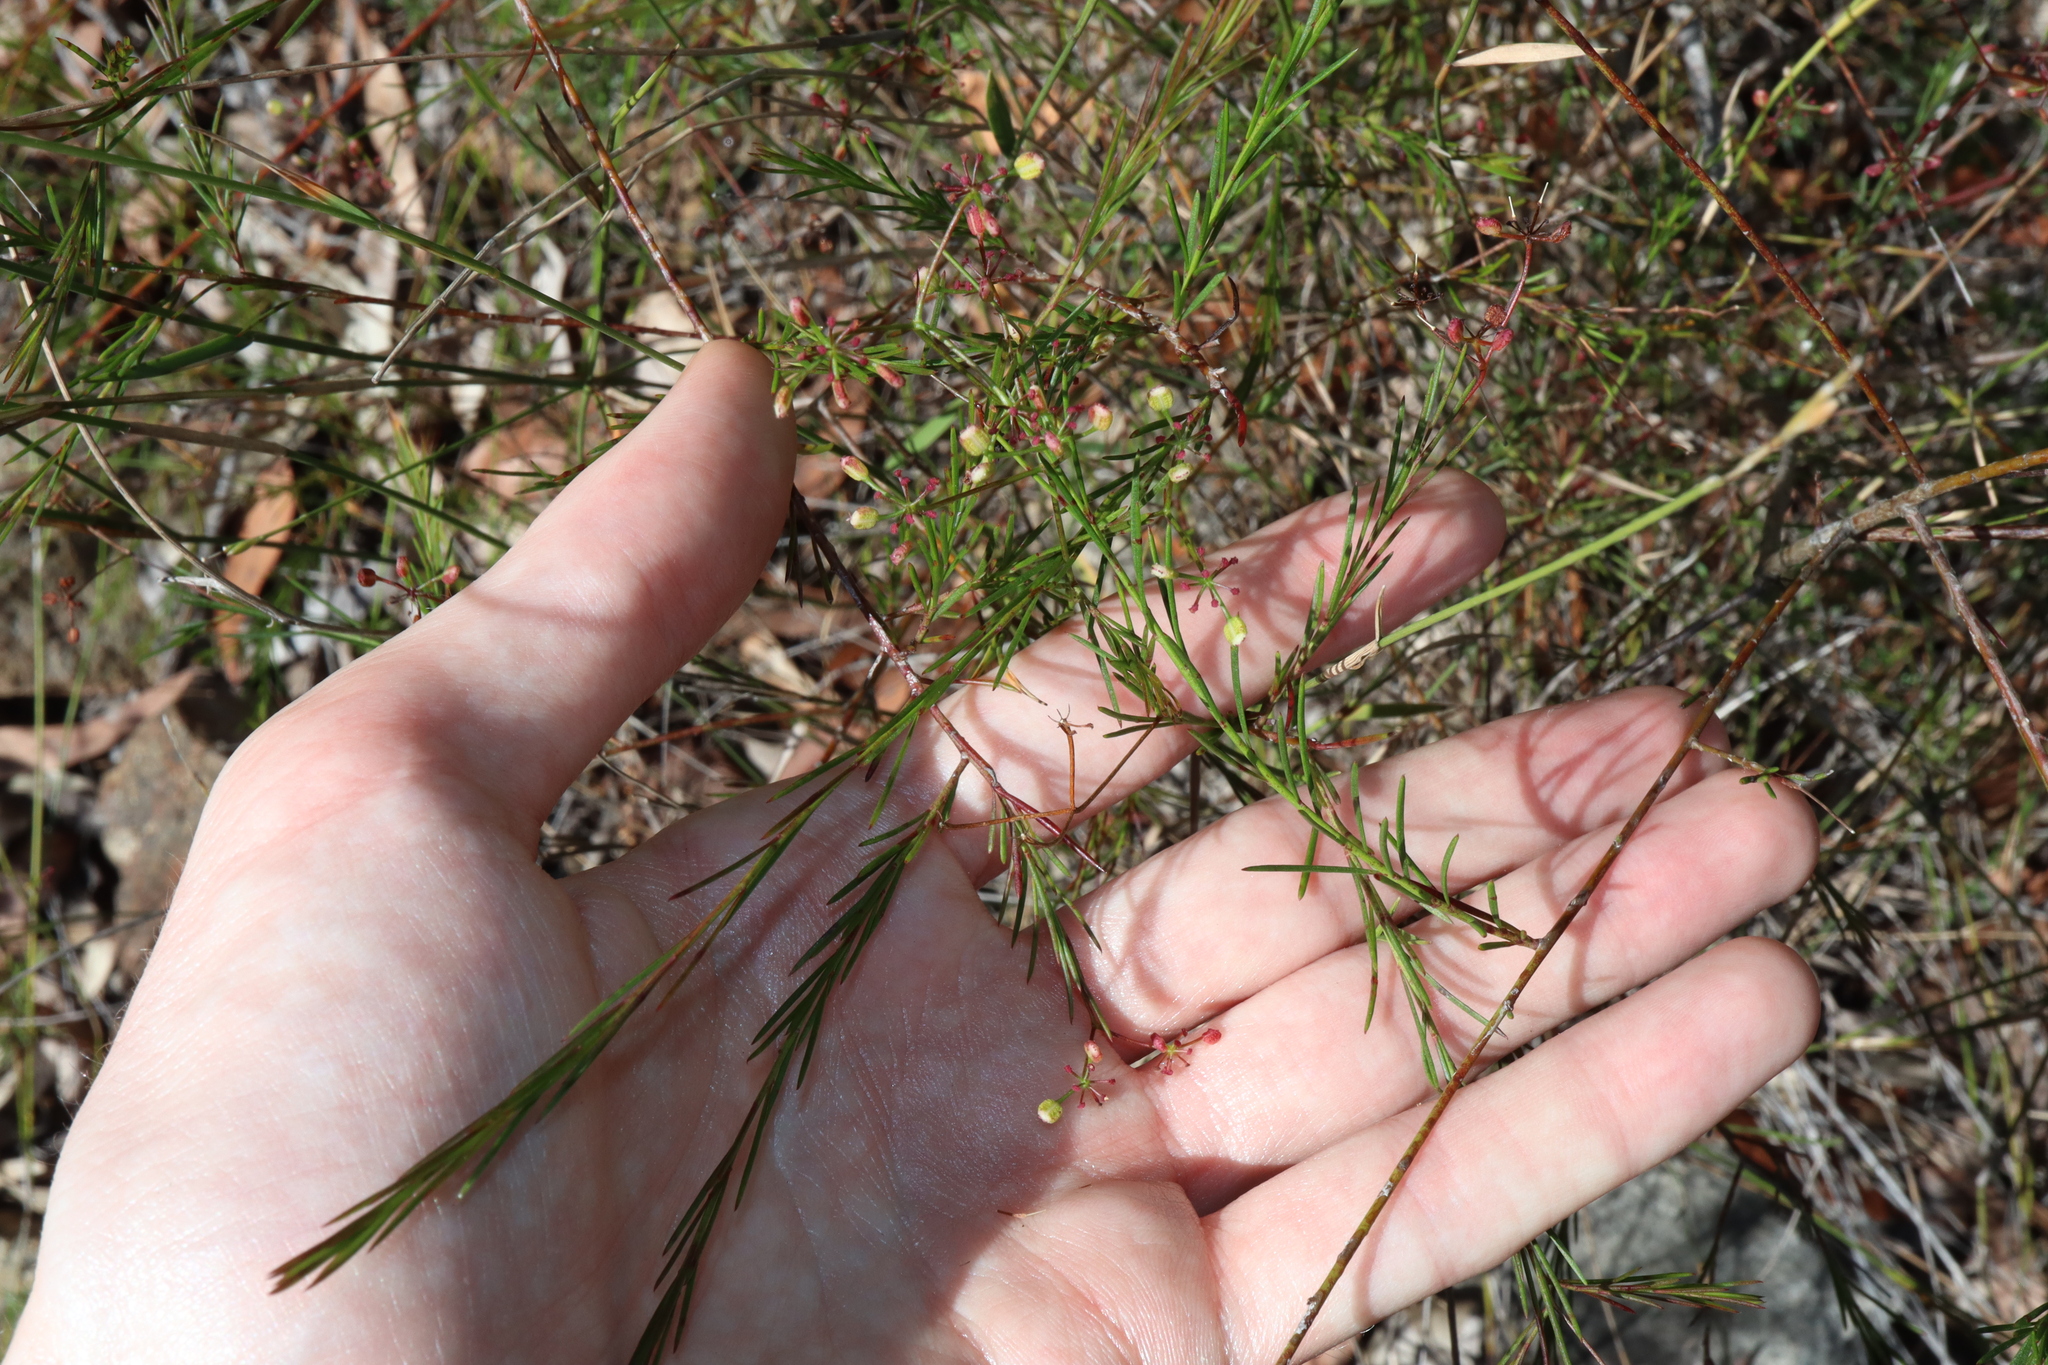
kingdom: Plantae
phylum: Tracheophyta
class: Magnoliopsida
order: Apiales
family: Apiaceae
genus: Platysace
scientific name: Platysace linearifolia
